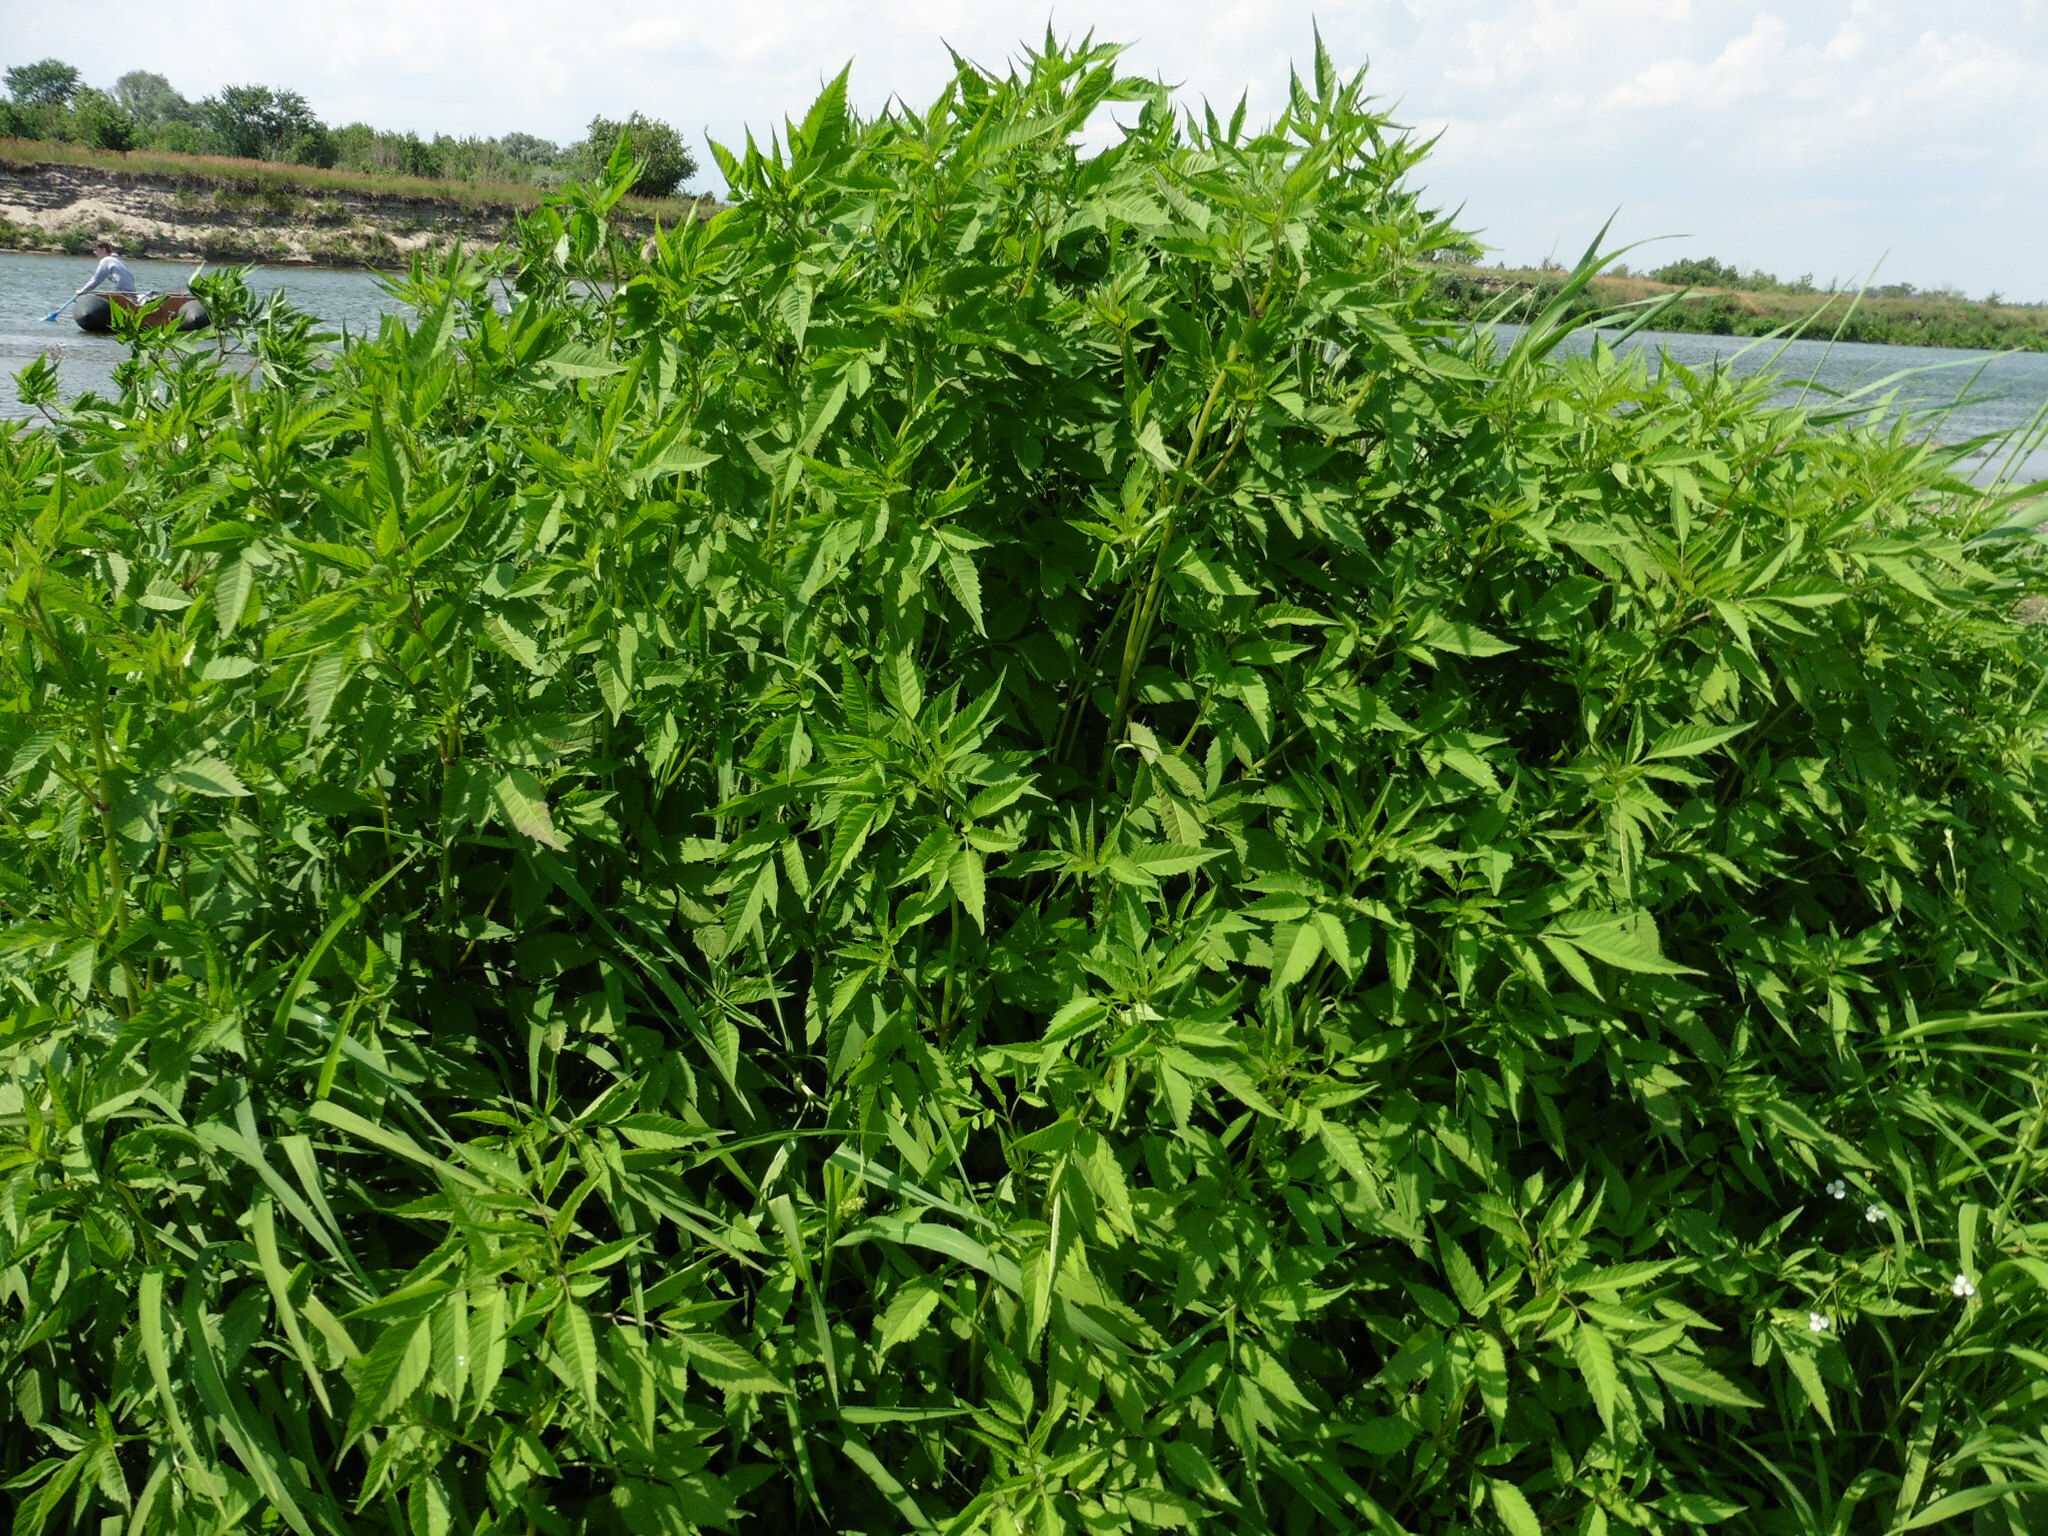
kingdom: Plantae
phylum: Tracheophyta
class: Magnoliopsida
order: Asterales
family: Asteraceae
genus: Bidens
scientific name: Bidens frondosa
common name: Beggarticks
